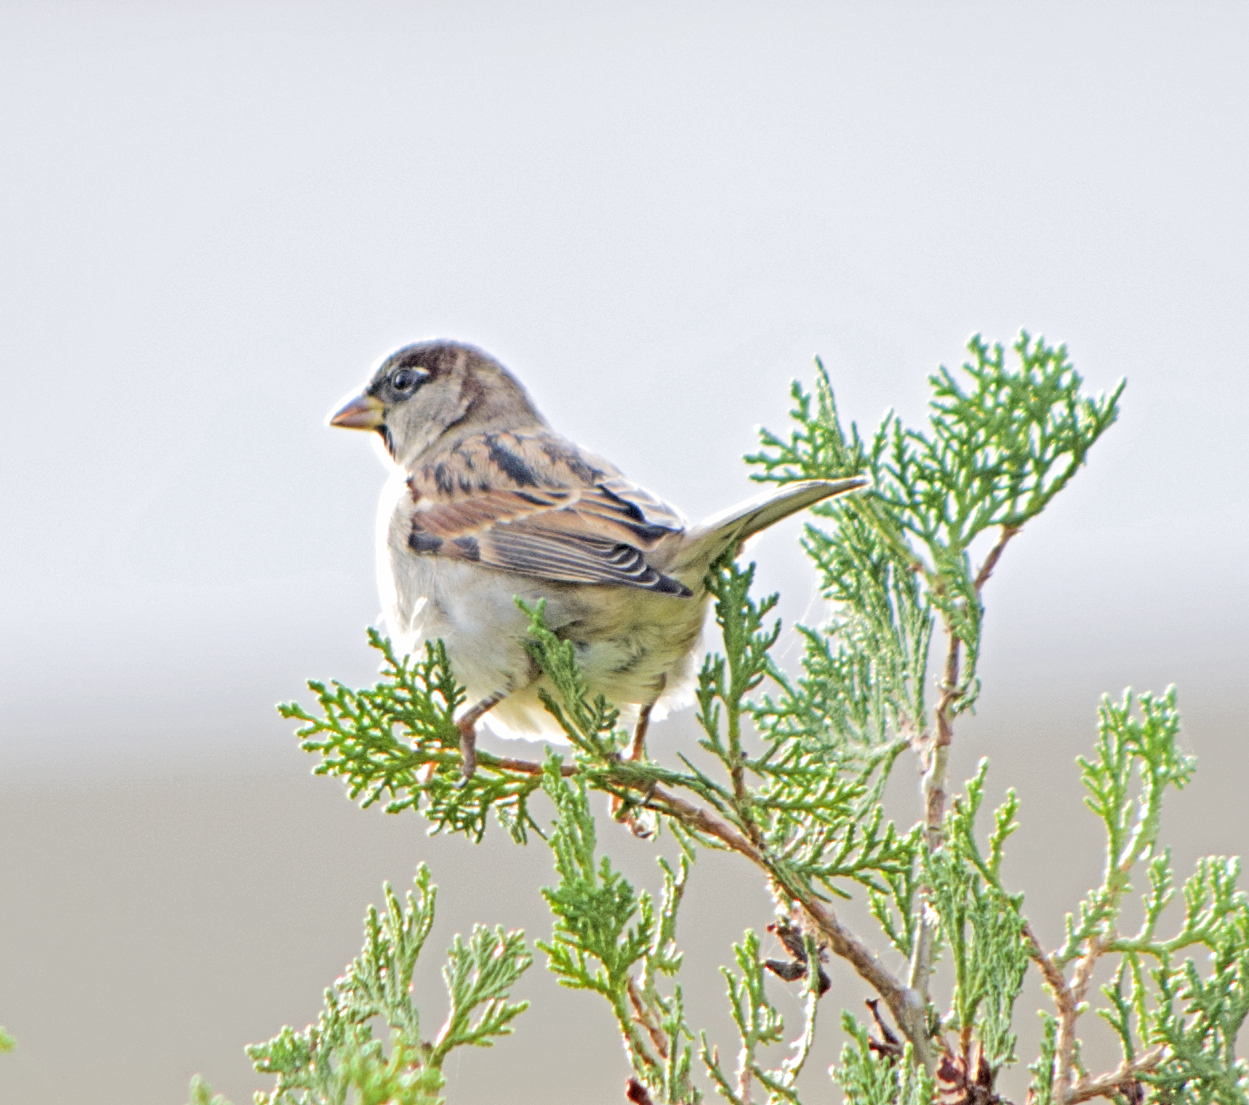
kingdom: Animalia
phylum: Chordata
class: Aves
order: Passeriformes
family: Passeridae
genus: Passer
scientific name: Passer domesticus
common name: House sparrow
